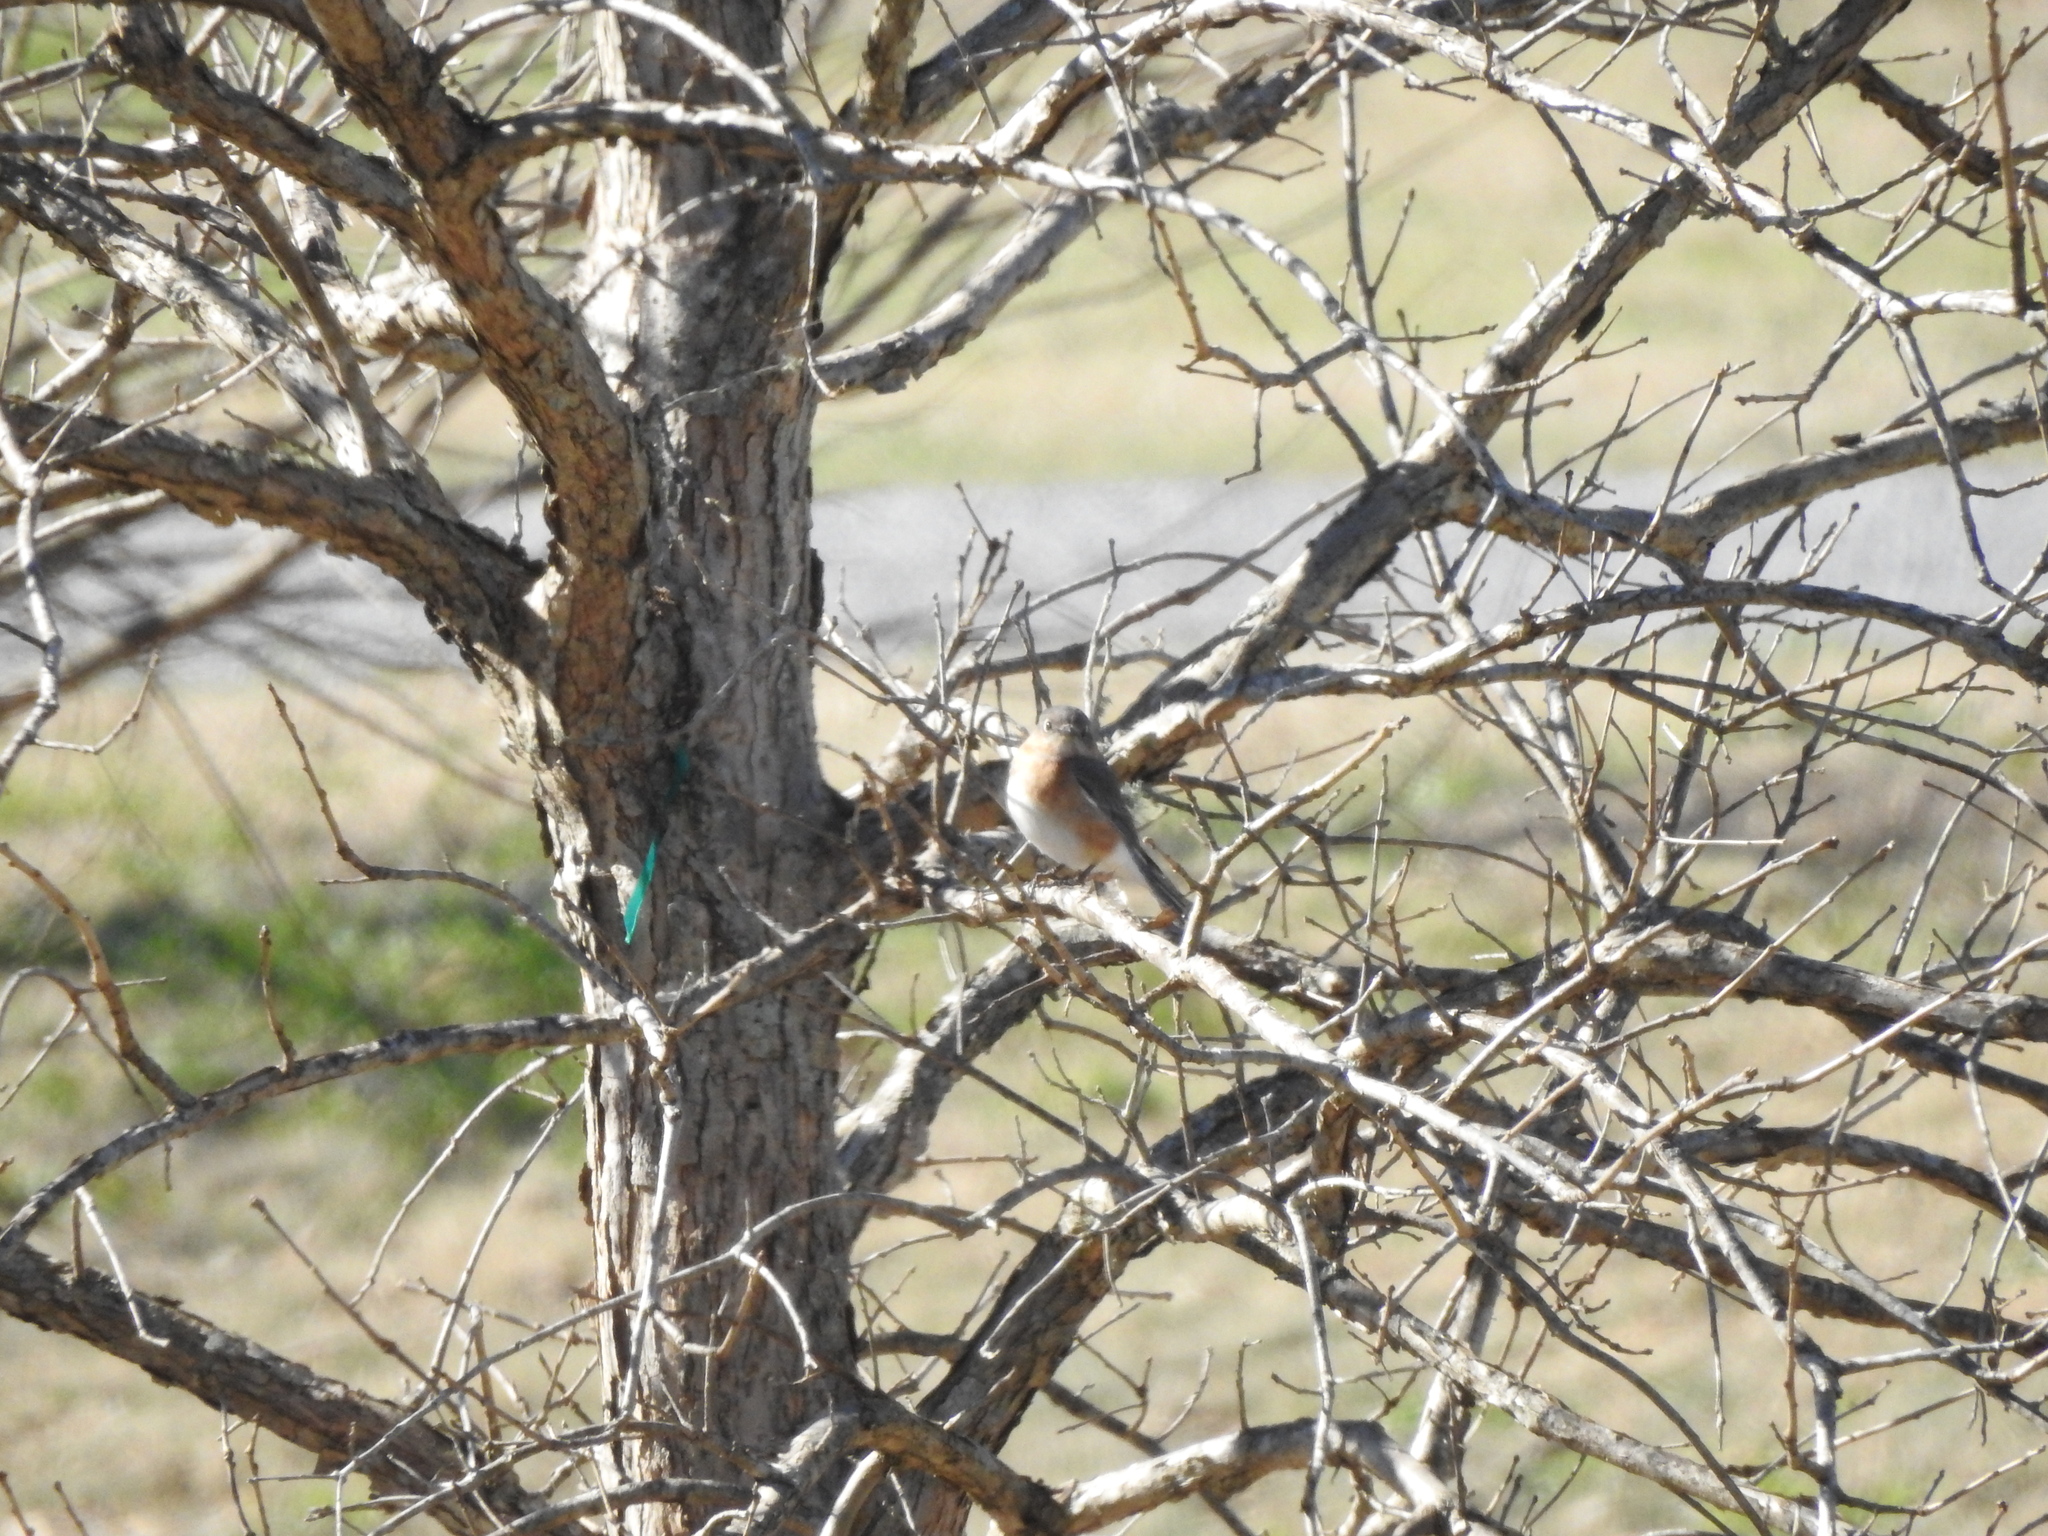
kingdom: Animalia
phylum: Chordata
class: Aves
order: Passeriformes
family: Turdidae
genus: Sialia
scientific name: Sialia sialis
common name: Eastern bluebird
